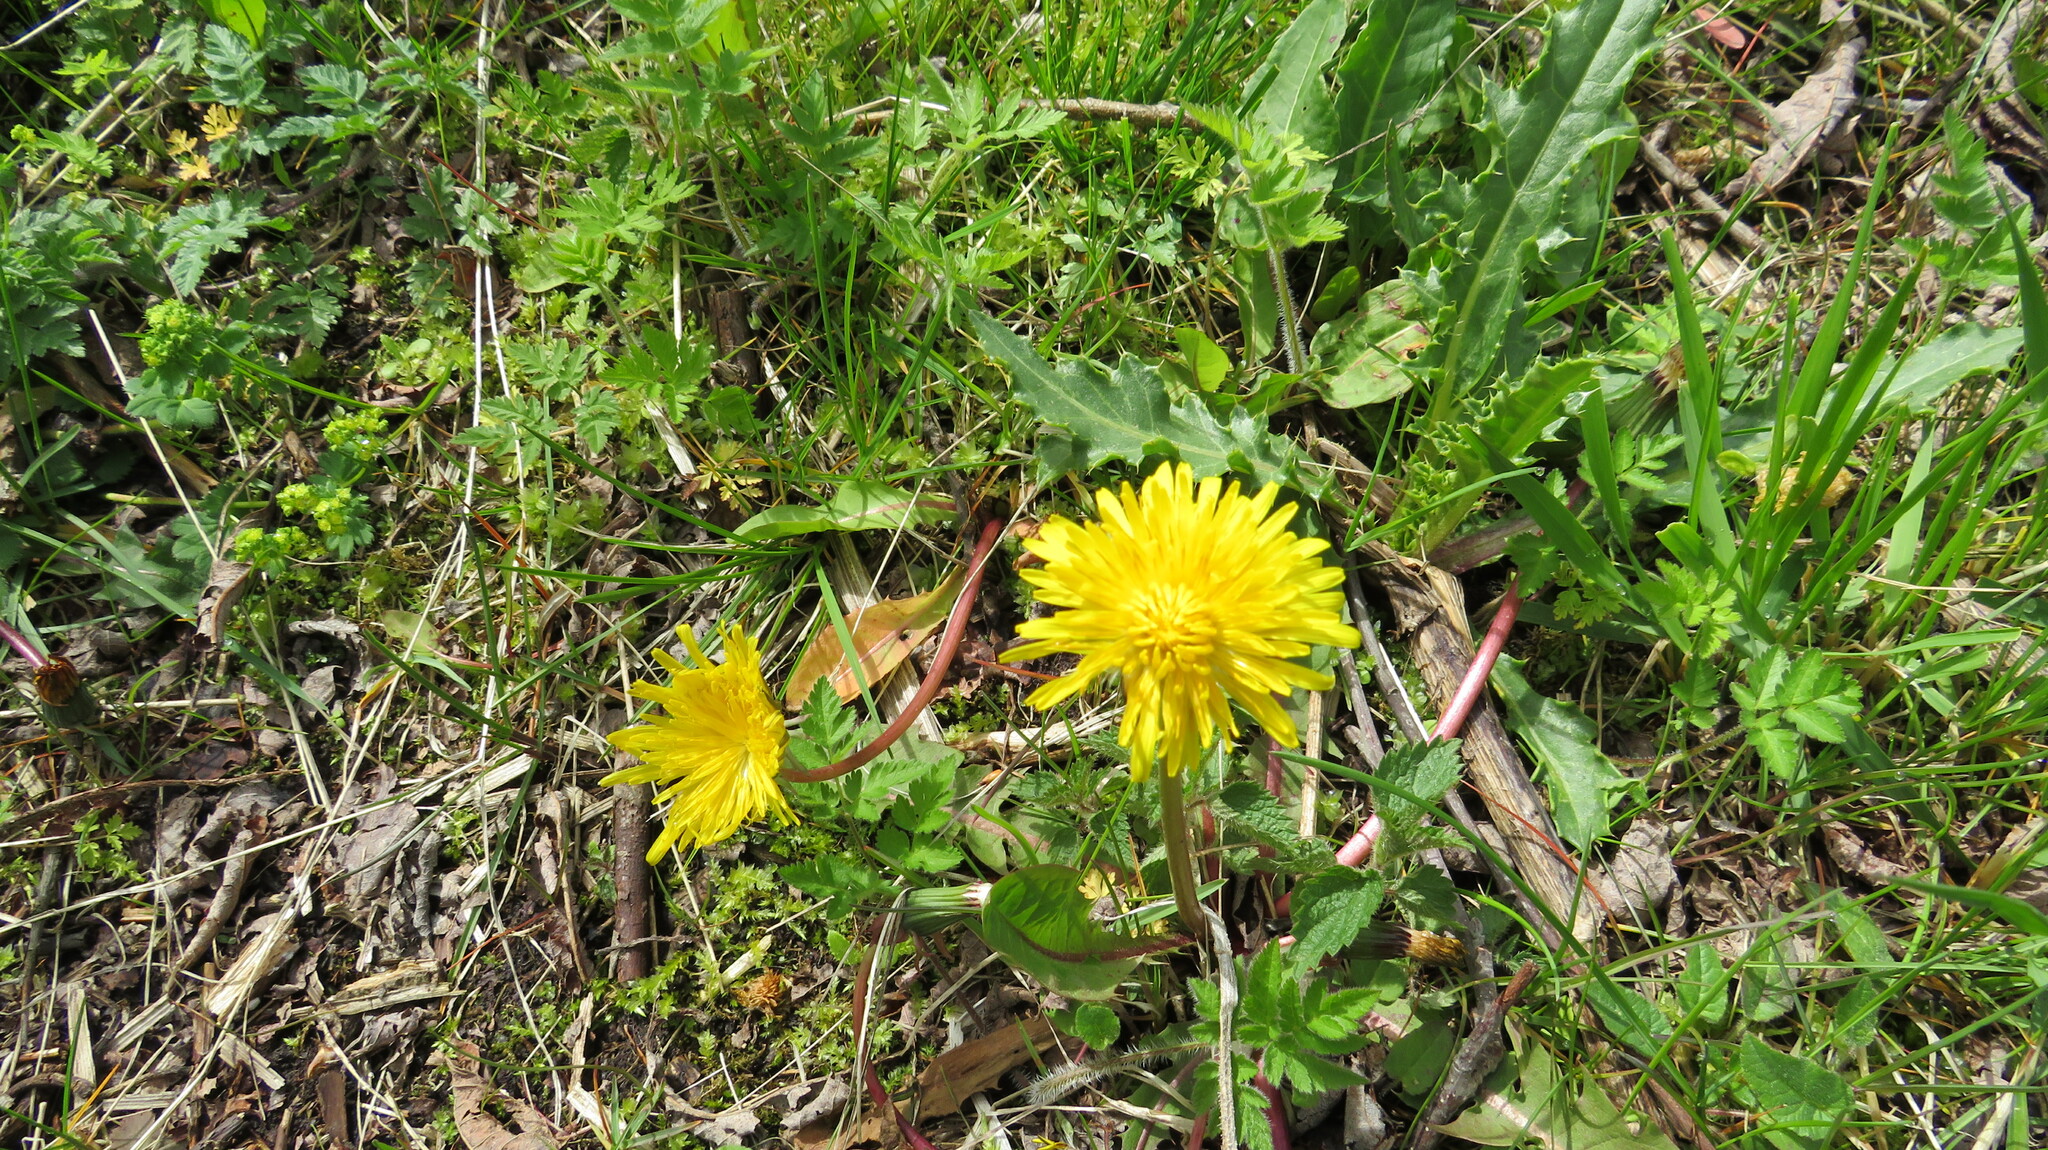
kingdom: Plantae
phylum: Tracheophyta
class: Magnoliopsida
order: Asterales
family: Asteraceae
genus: Taraxacum
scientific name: Taraxacum
